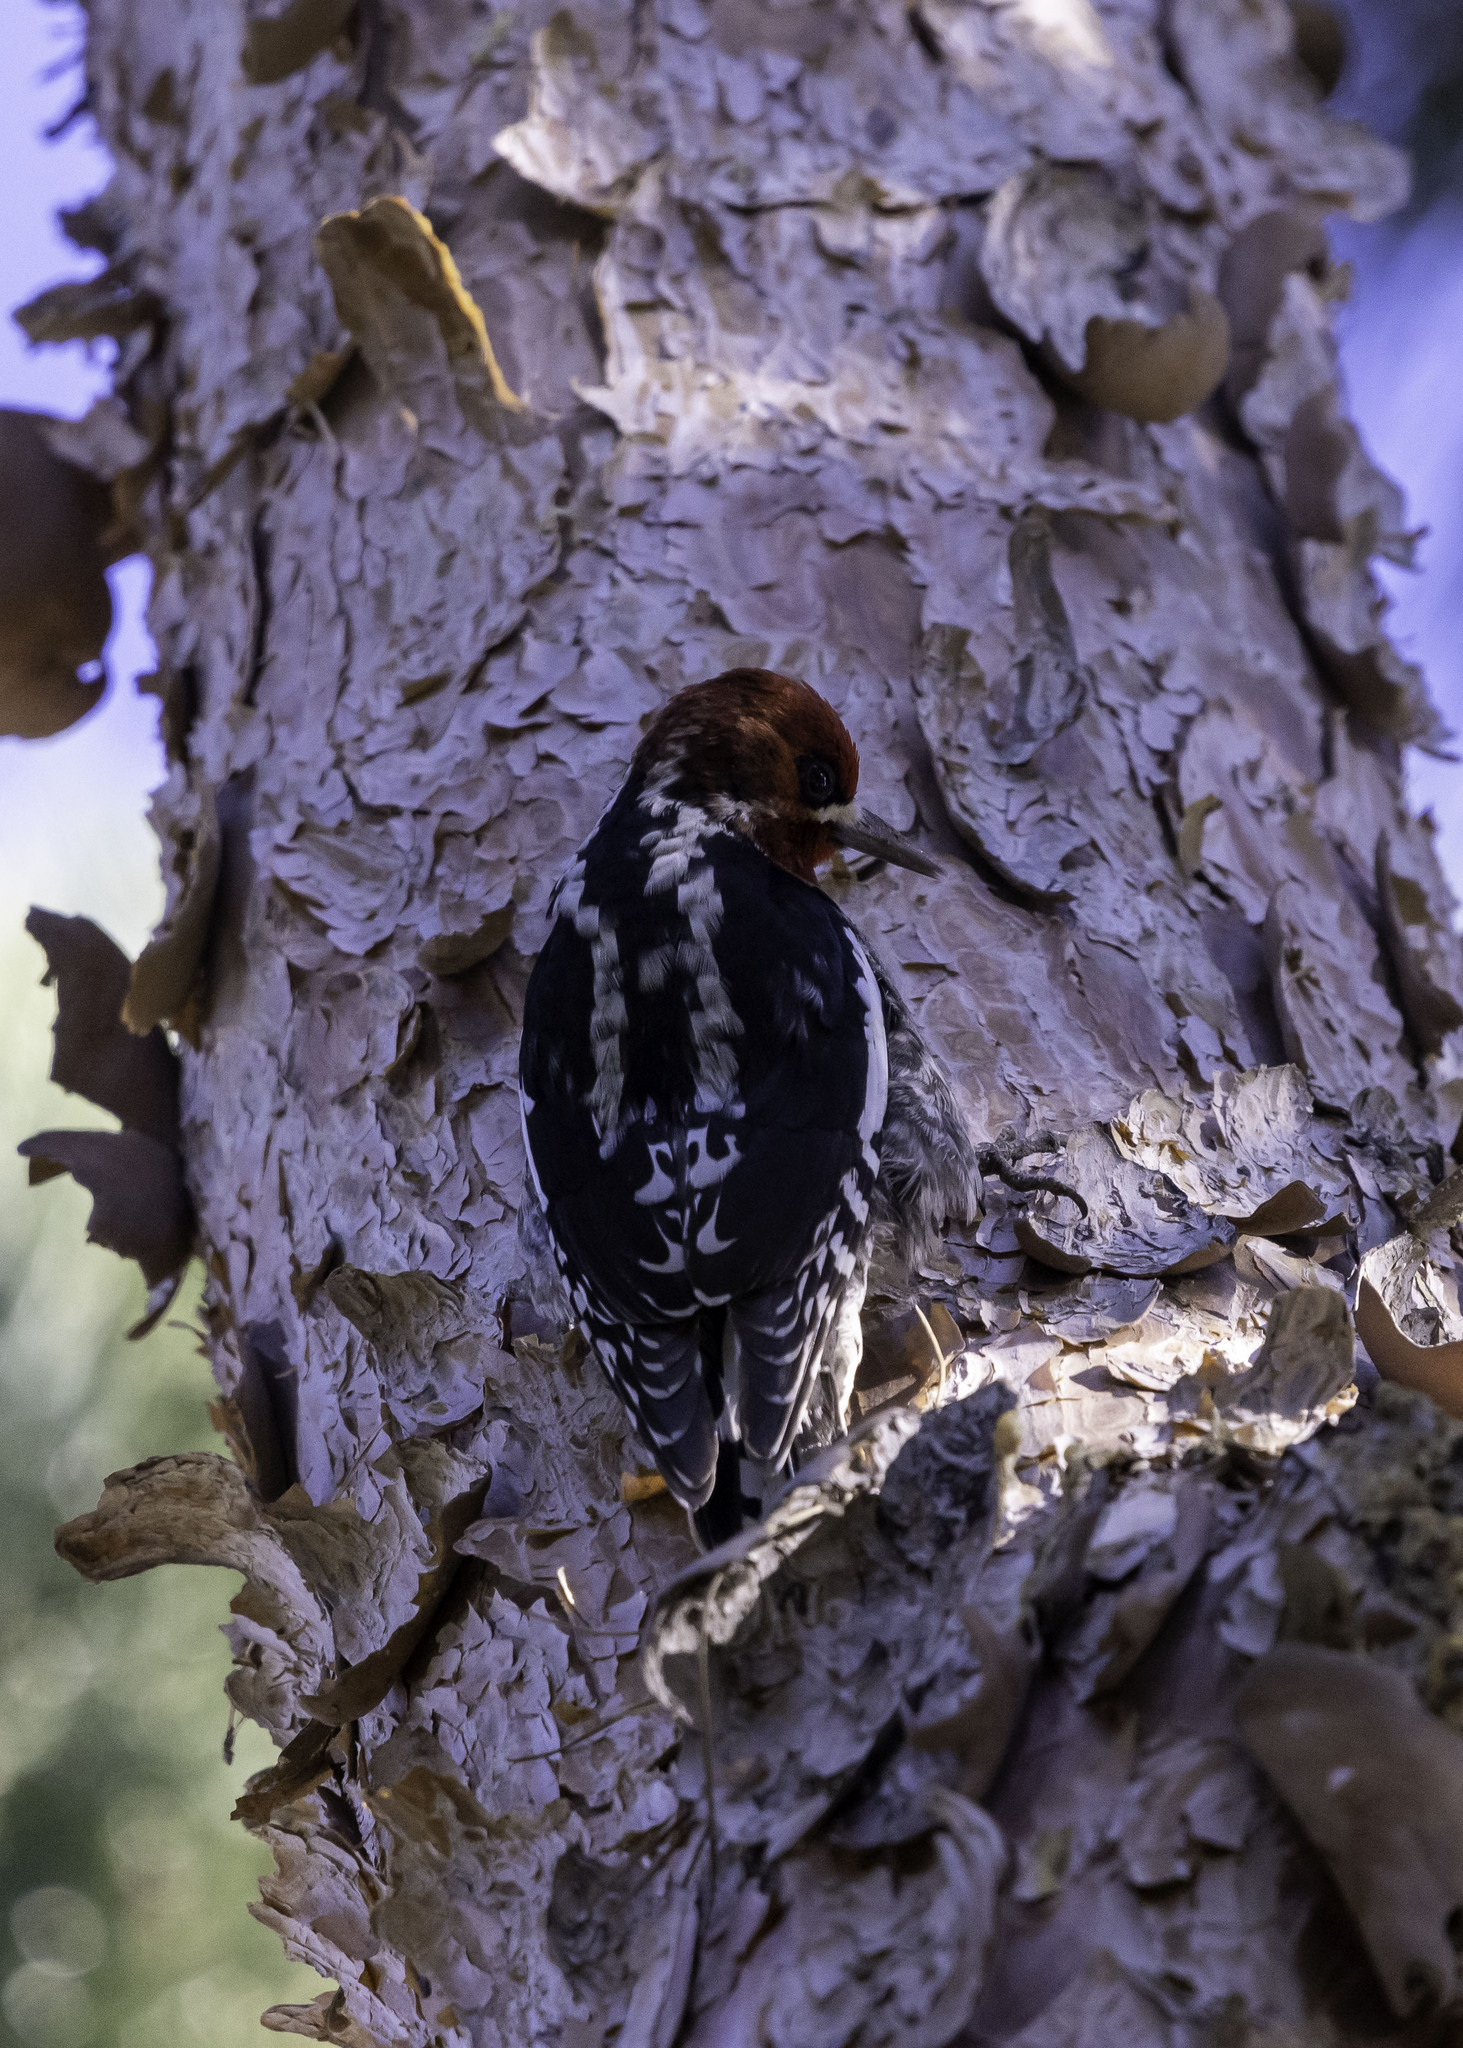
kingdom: Animalia
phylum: Chordata
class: Aves
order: Piciformes
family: Picidae
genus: Sphyrapicus
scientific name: Sphyrapicus ruber
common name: Red-breasted sapsucker
